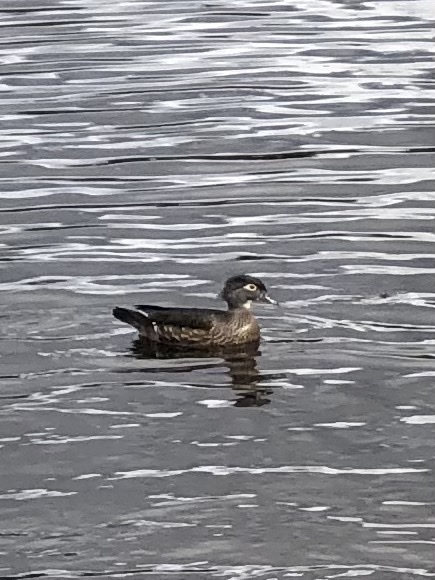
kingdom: Animalia
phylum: Chordata
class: Aves
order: Anseriformes
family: Anatidae
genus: Aix
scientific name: Aix sponsa
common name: Wood duck
